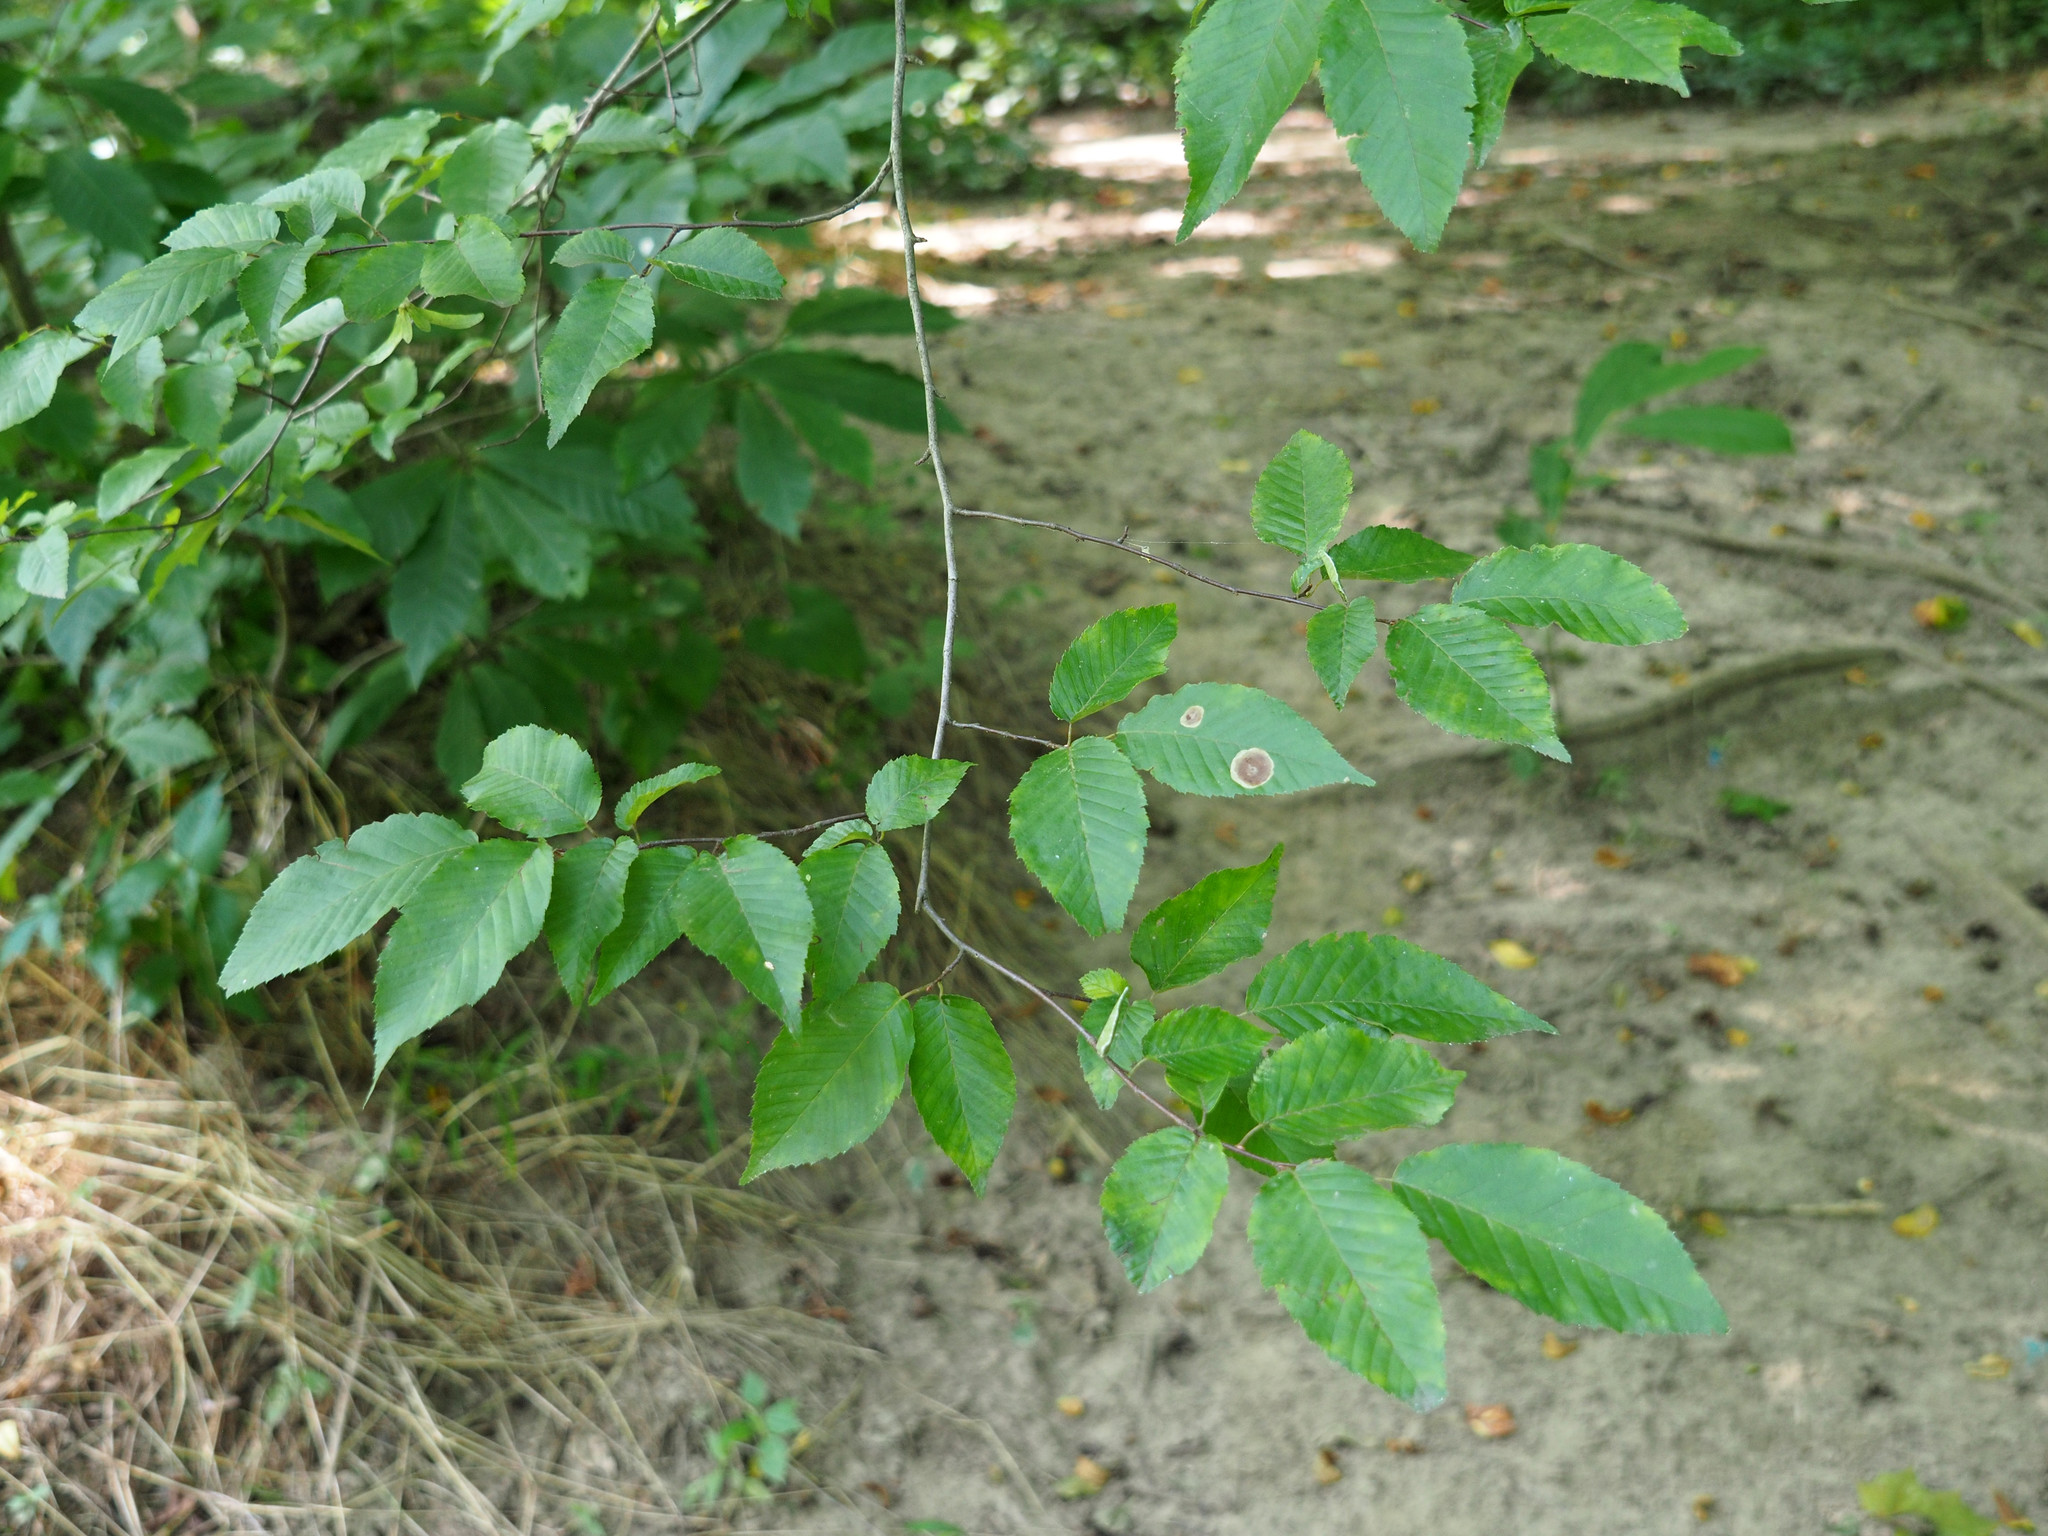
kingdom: Plantae
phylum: Tracheophyta
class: Magnoliopsida
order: Fagales
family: Betulaceae
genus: Carpinus
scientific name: Carpinus caroliniana
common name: American hornbeam
